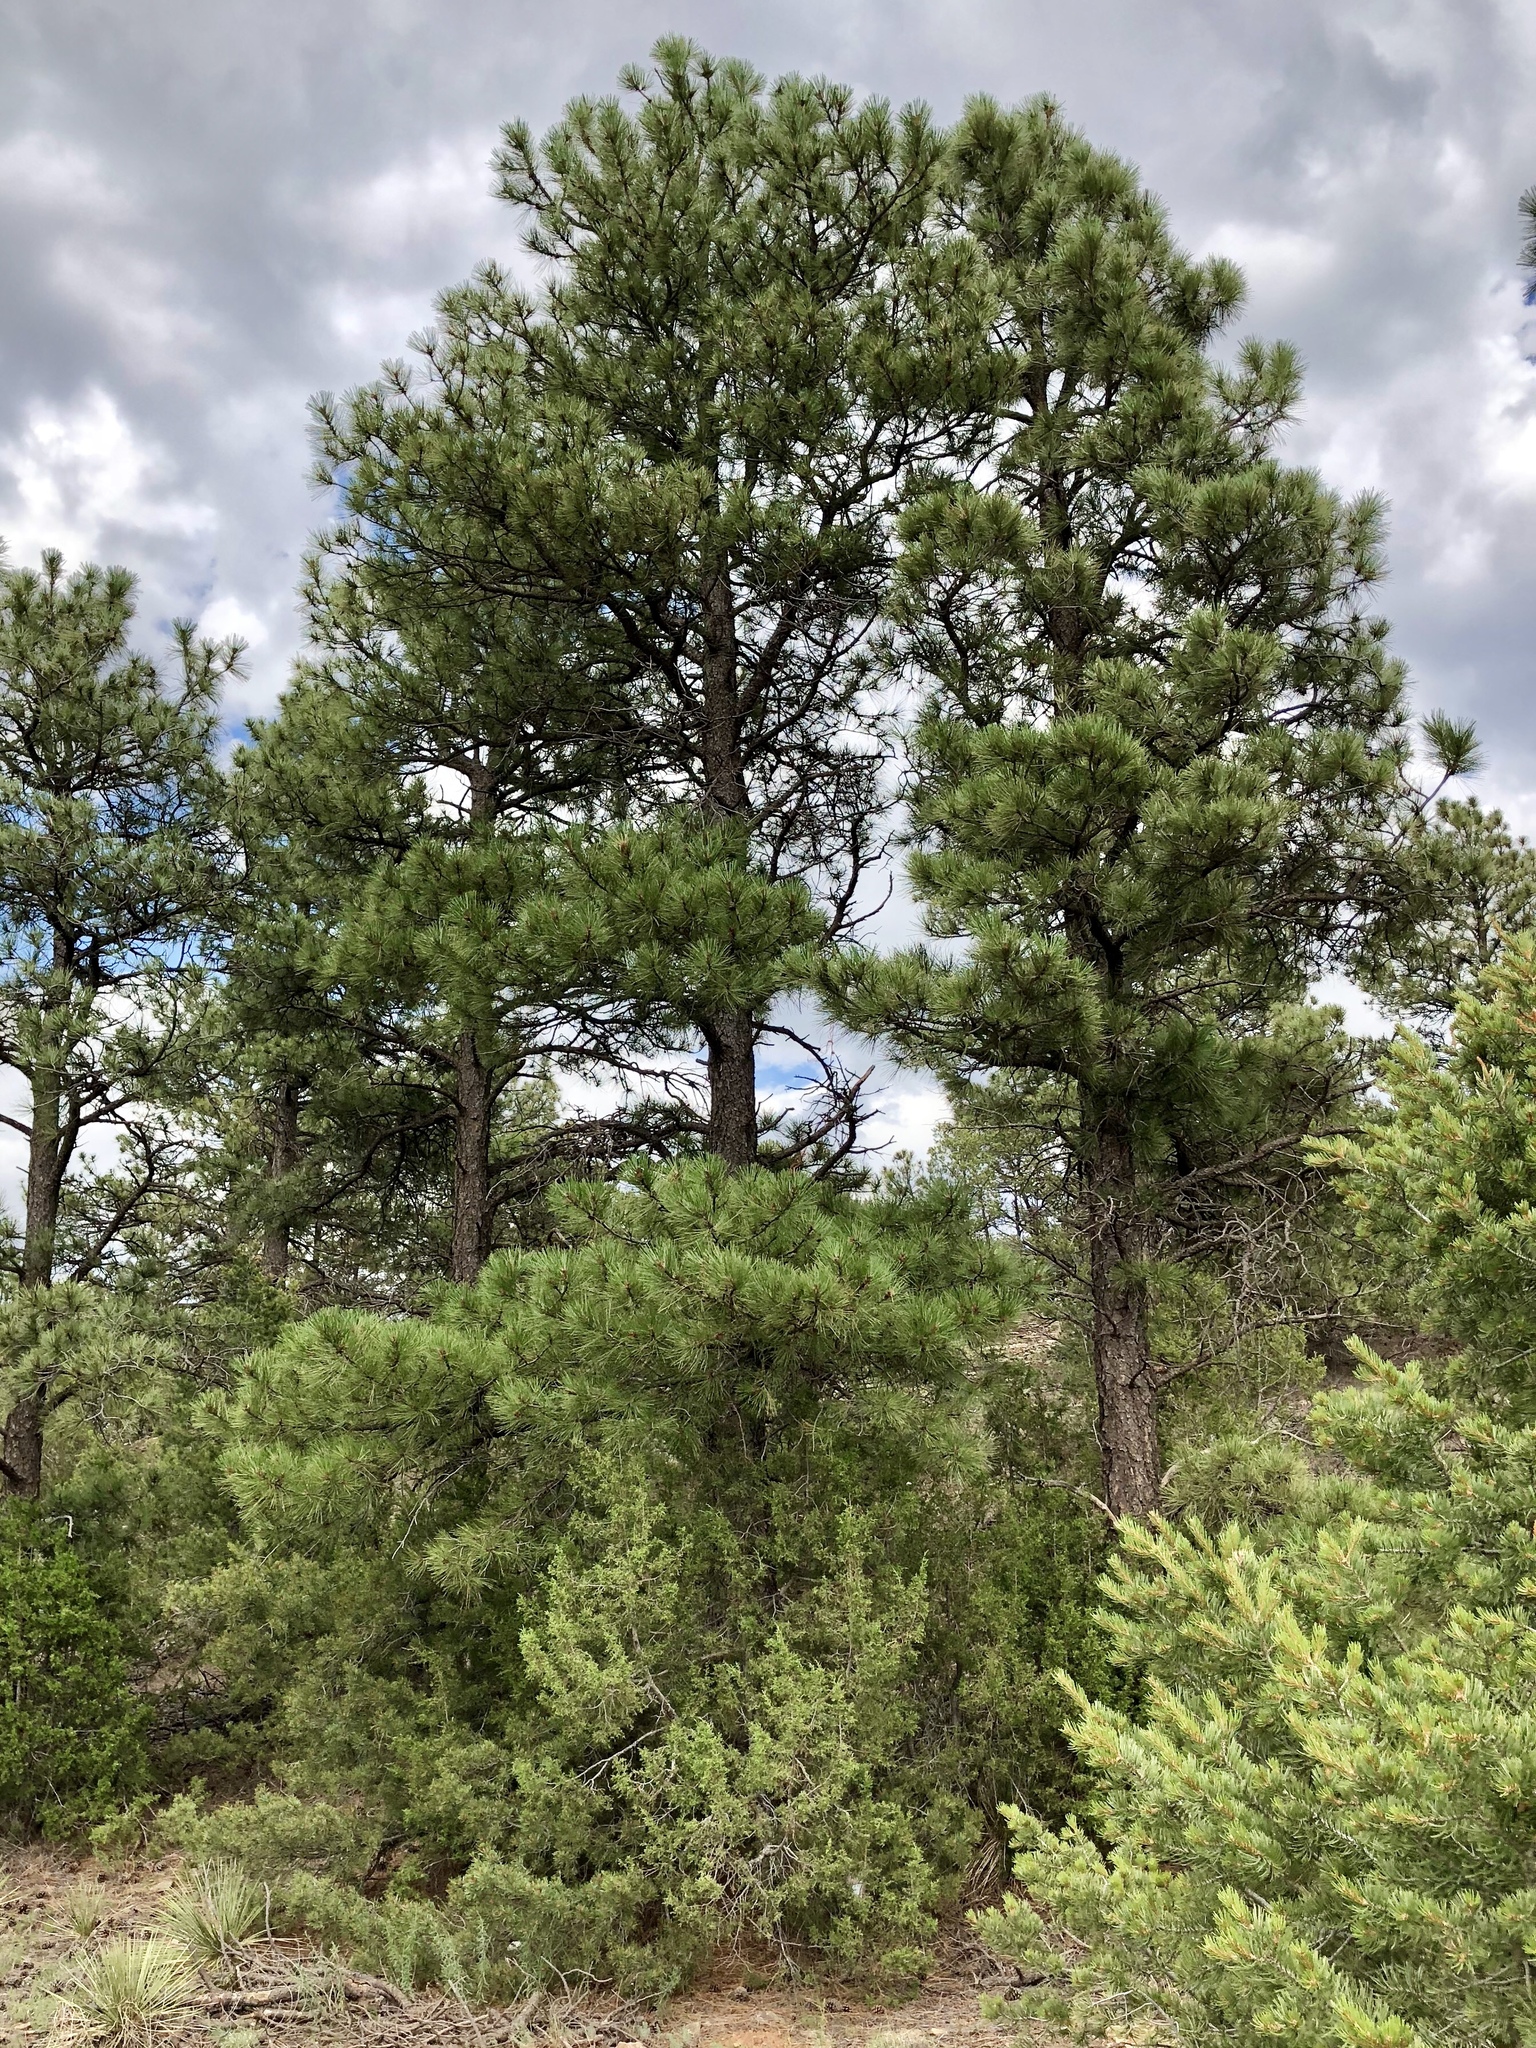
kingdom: Plantae
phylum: Tracheophyta
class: Pinopsida
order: Pinales
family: Pinaceae
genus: Pinus
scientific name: Pinus ponderosa
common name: Western yellow-pine
